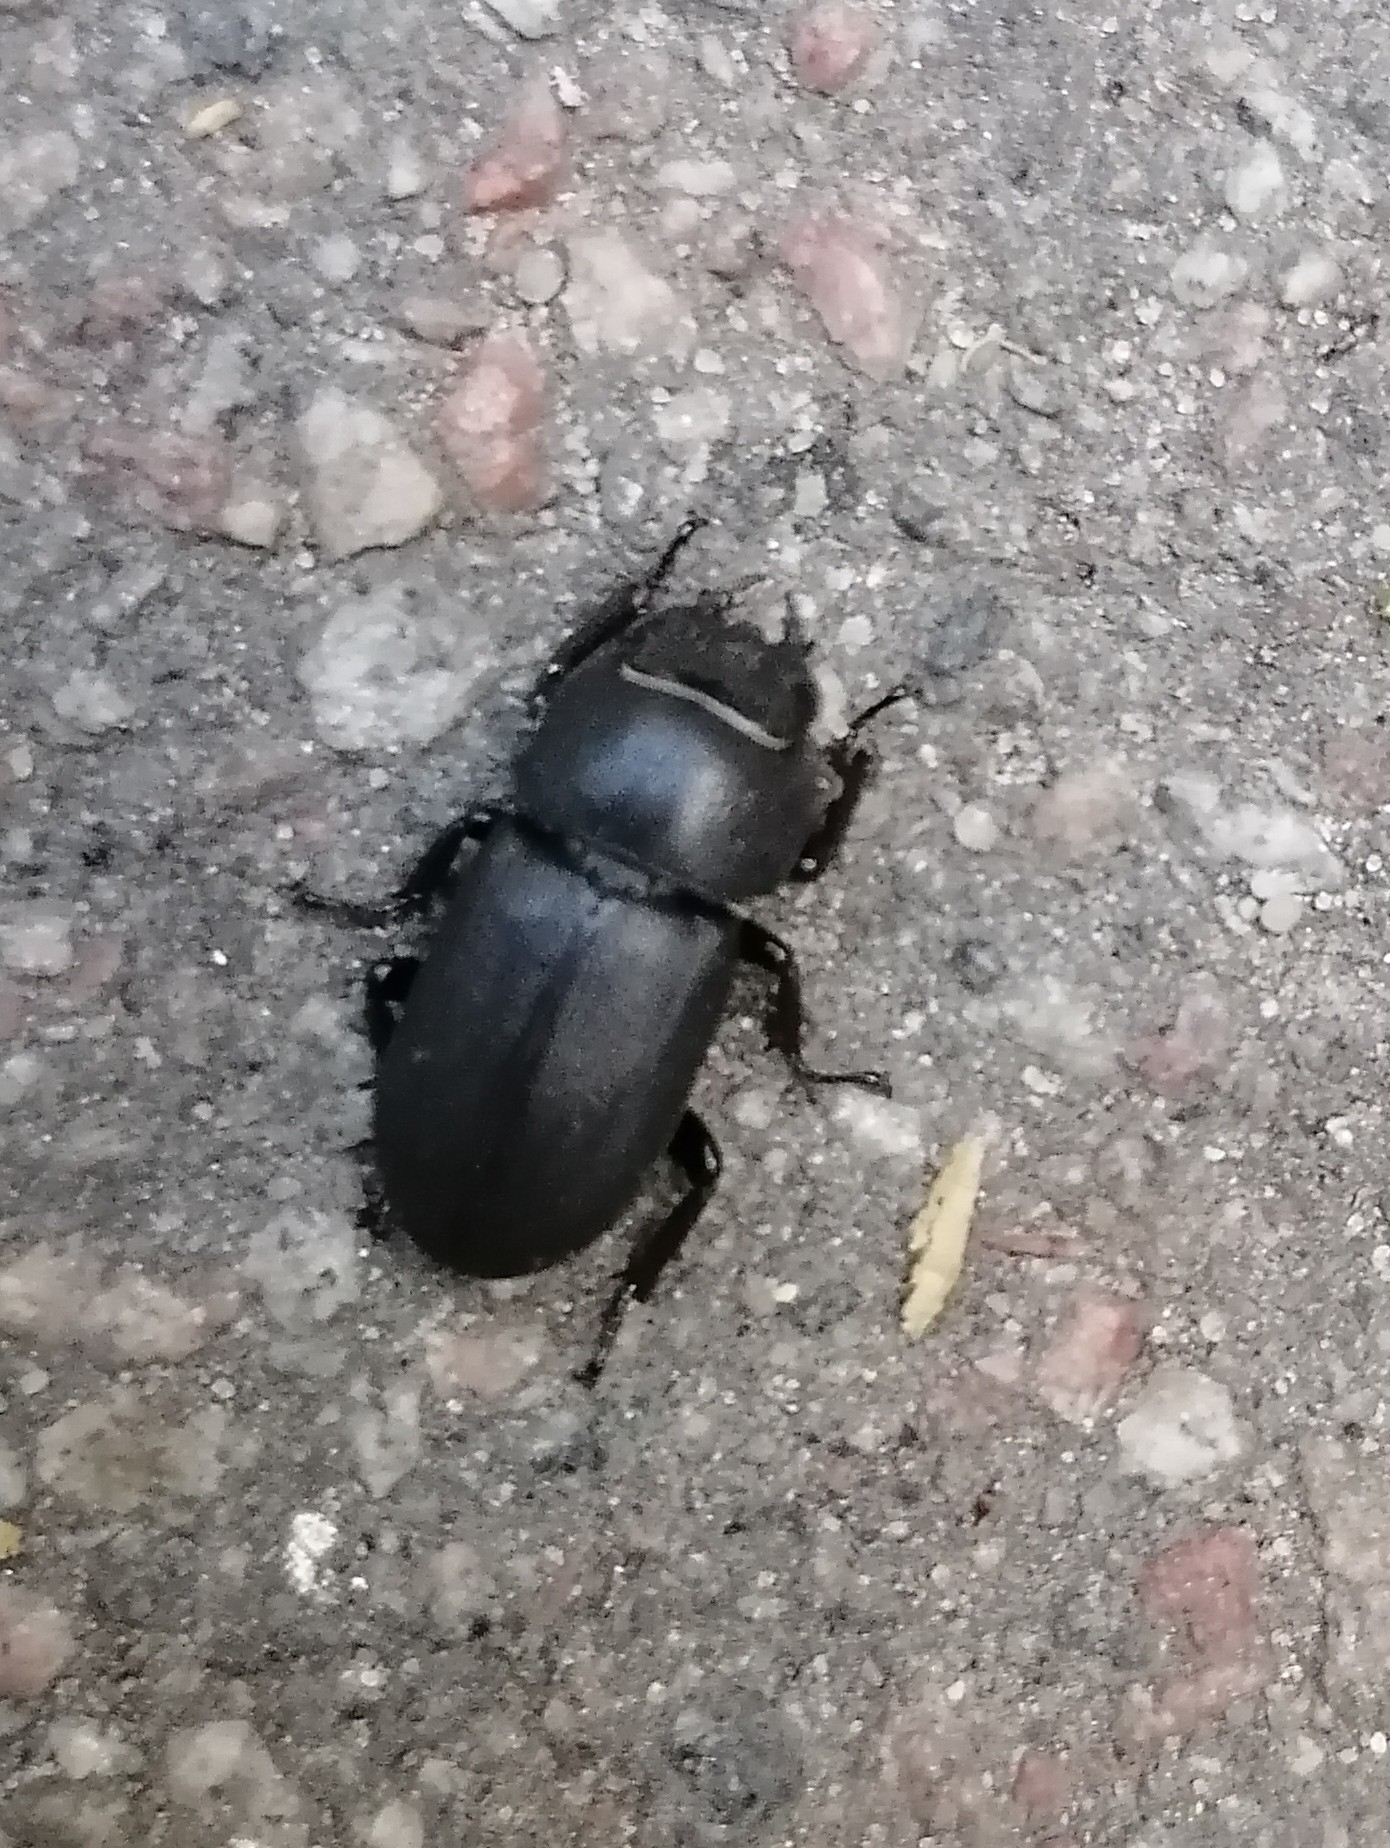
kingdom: Animalia
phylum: Arthropoda
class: Insecta
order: Coleoptera
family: Lucanidae
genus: Dorcus
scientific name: Dorcus parallelipipedus
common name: Lesser stag beetle
